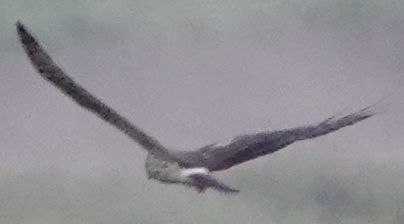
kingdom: Animalia
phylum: Chordata
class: Aves
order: Accipitriformes
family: Accipitridae
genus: Circus
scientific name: Circus pygargus
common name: Montagu's harrier
